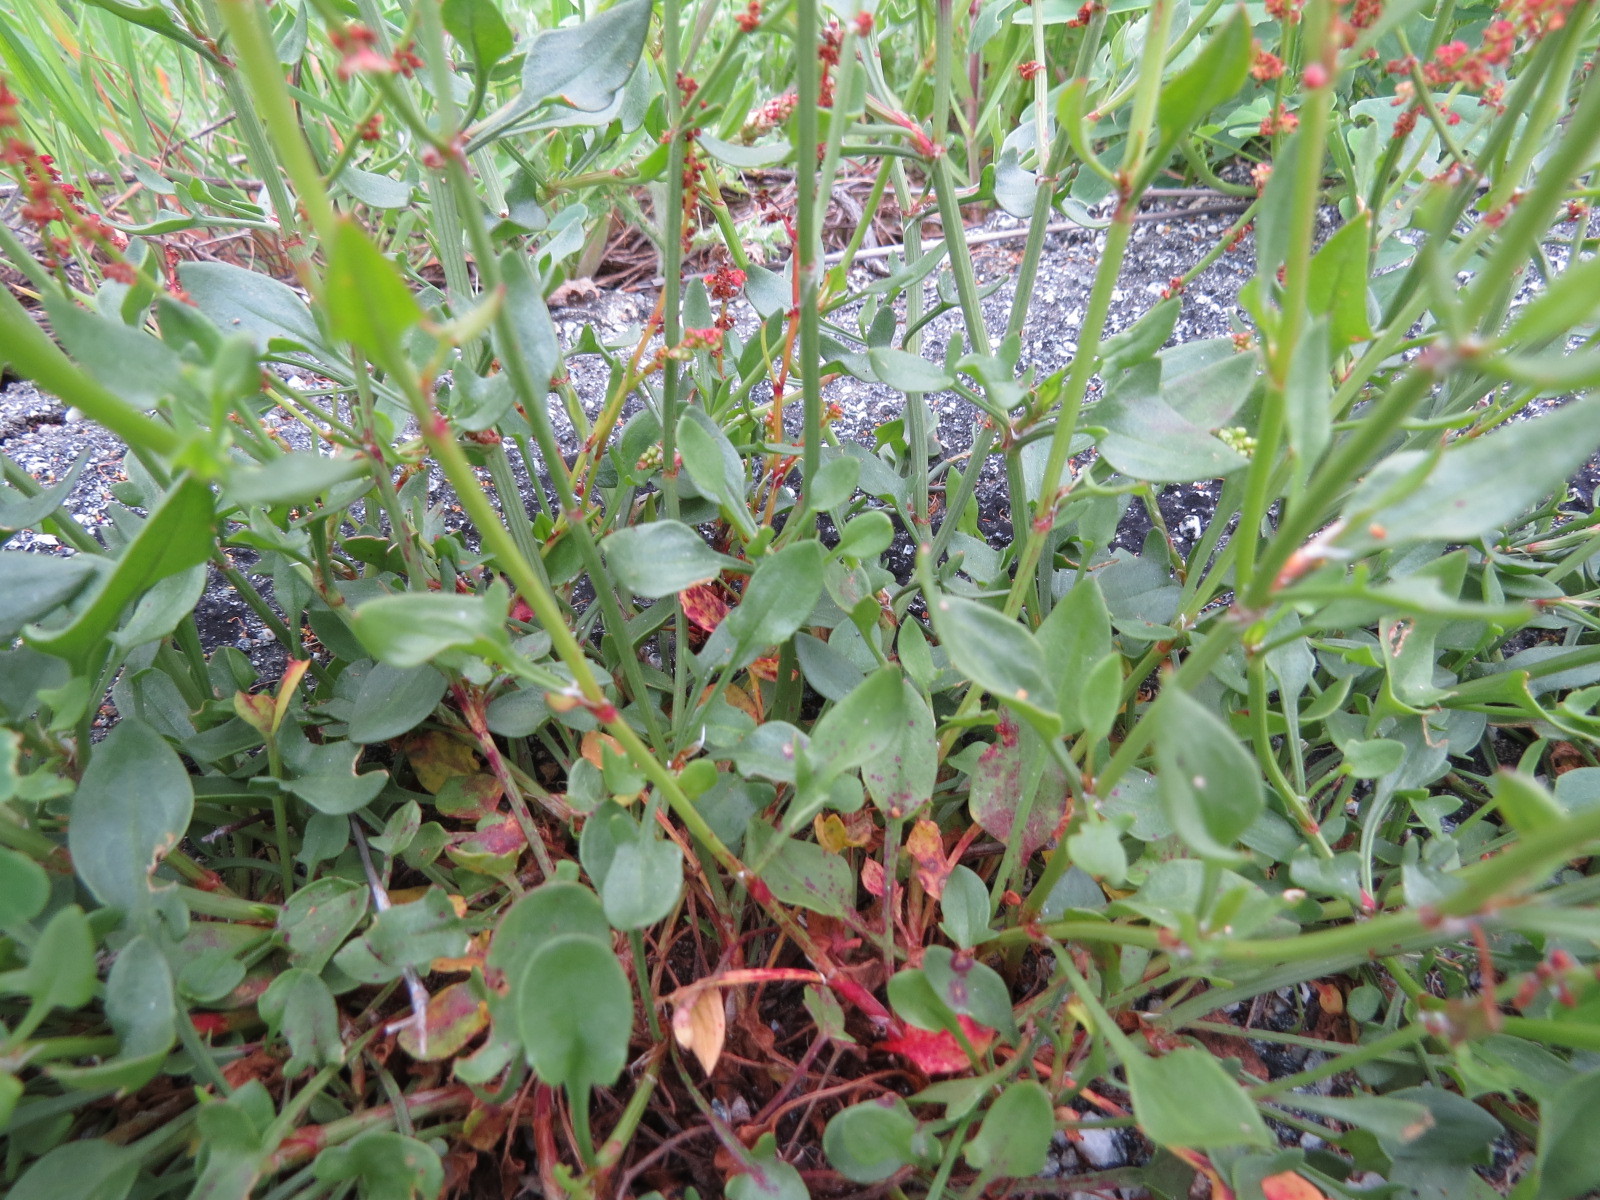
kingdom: Plantae
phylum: Tracheophyta
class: Magnoliopsida
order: Caryophyllales
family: Polygonaceae
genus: Rumex
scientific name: Rumex acetosella
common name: Common sheep sorrel
